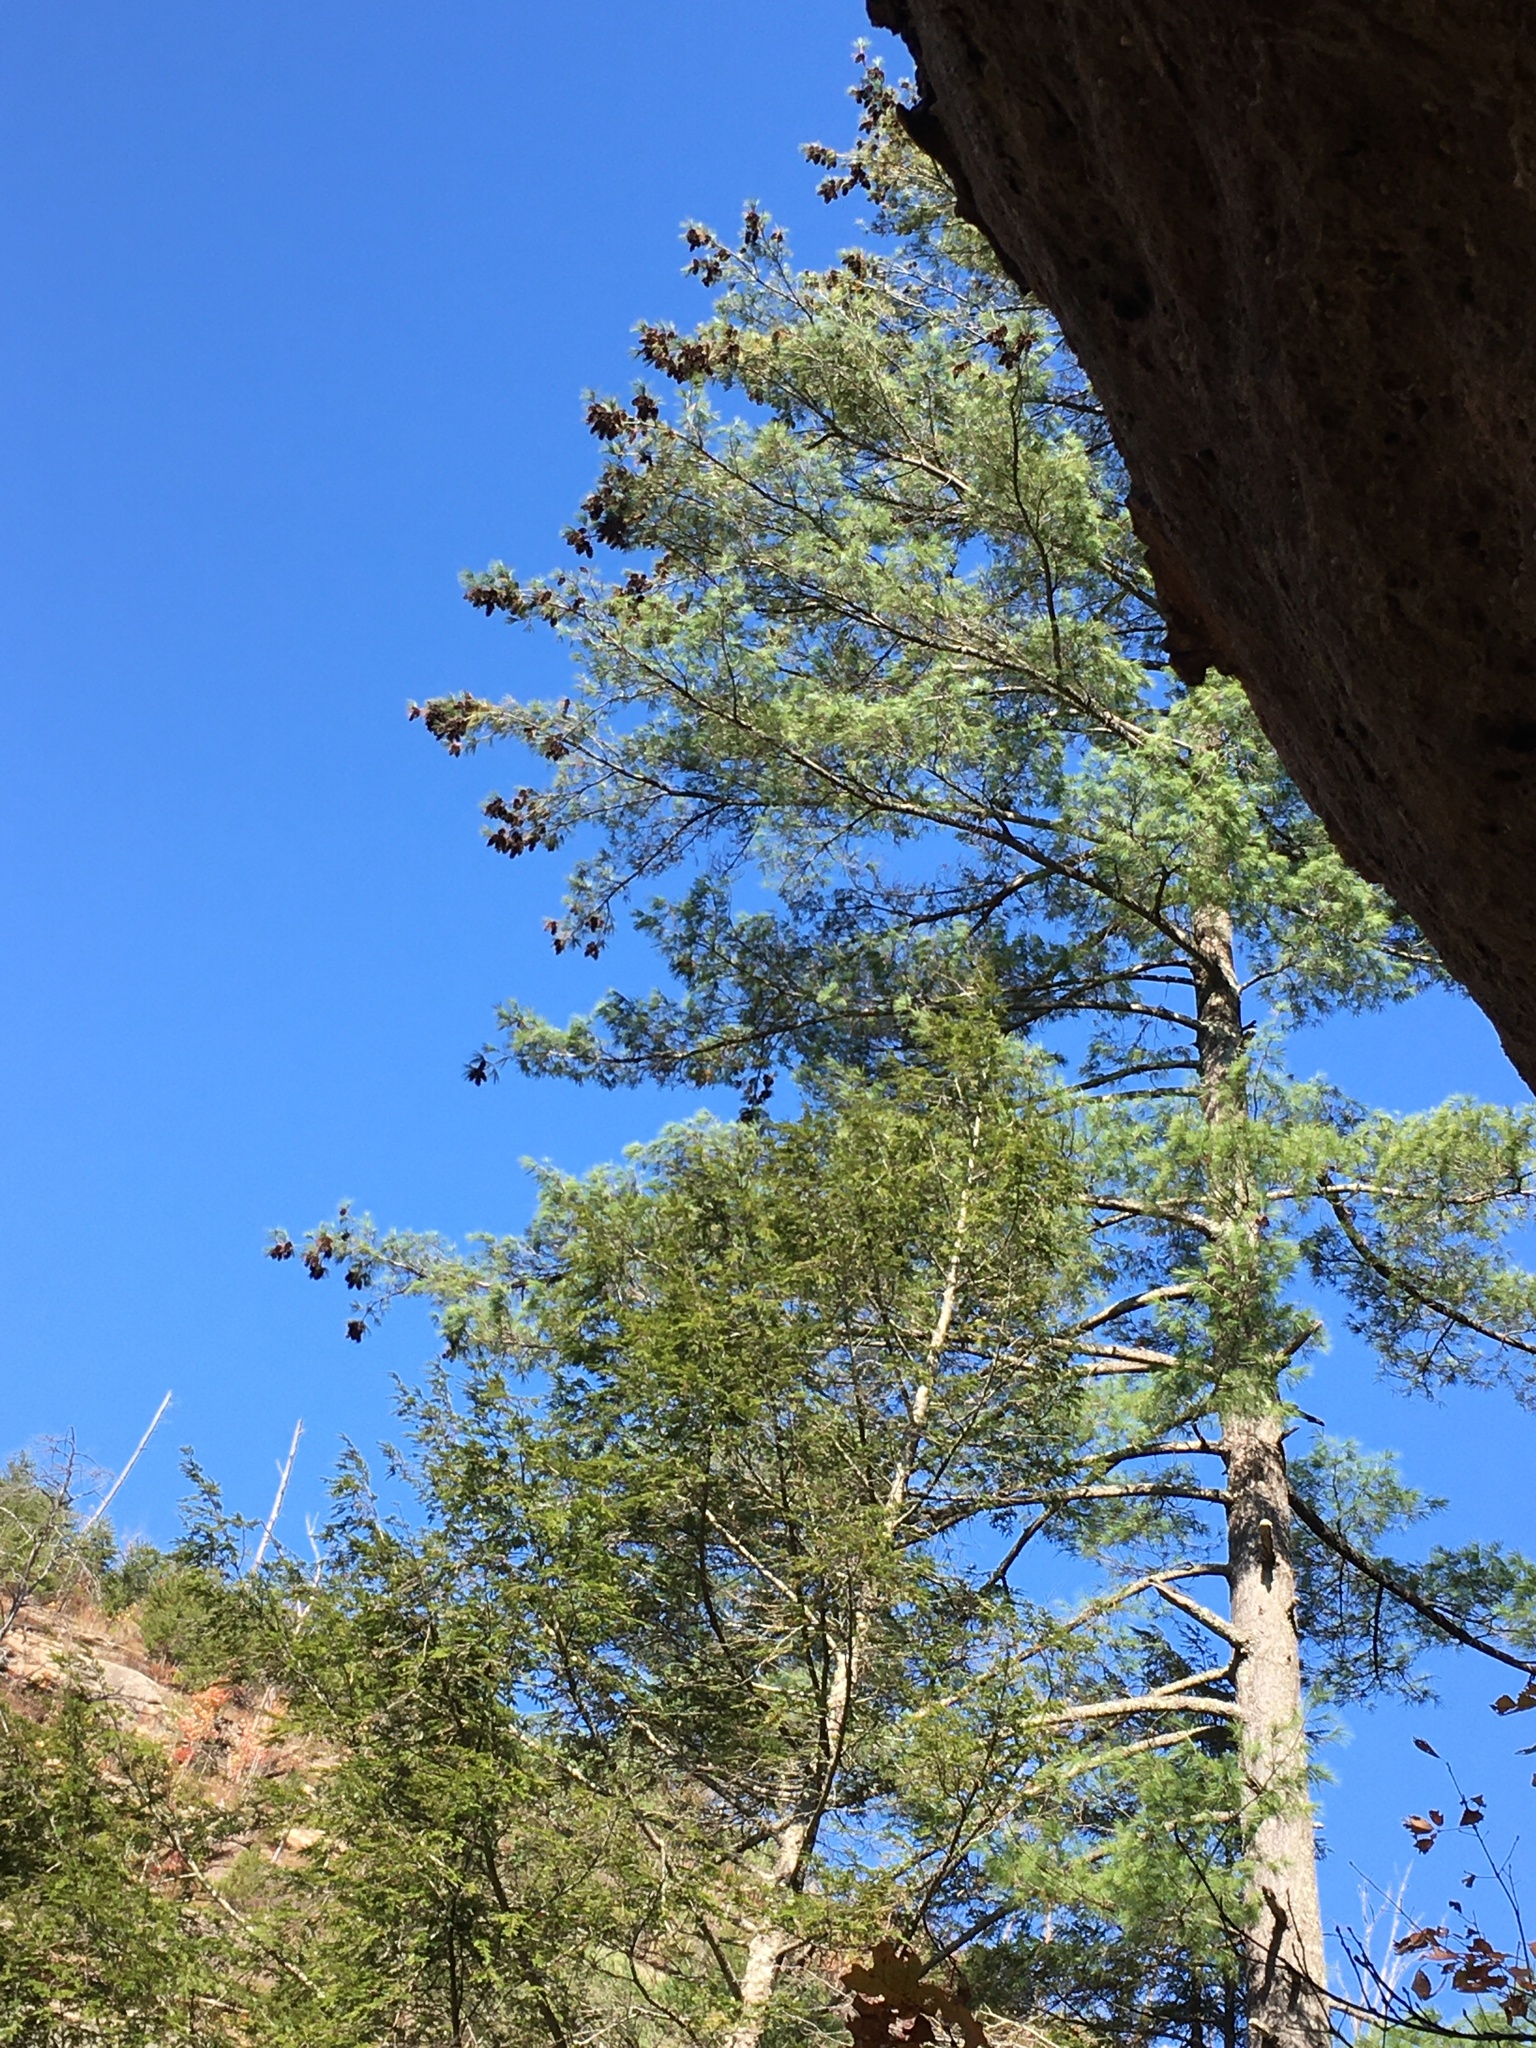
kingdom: Plantae
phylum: Tracheophyta
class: Pinopsida
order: Pinales
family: Pinaceae
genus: Pinus
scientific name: Pinus strobus
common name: Weymouth pine
